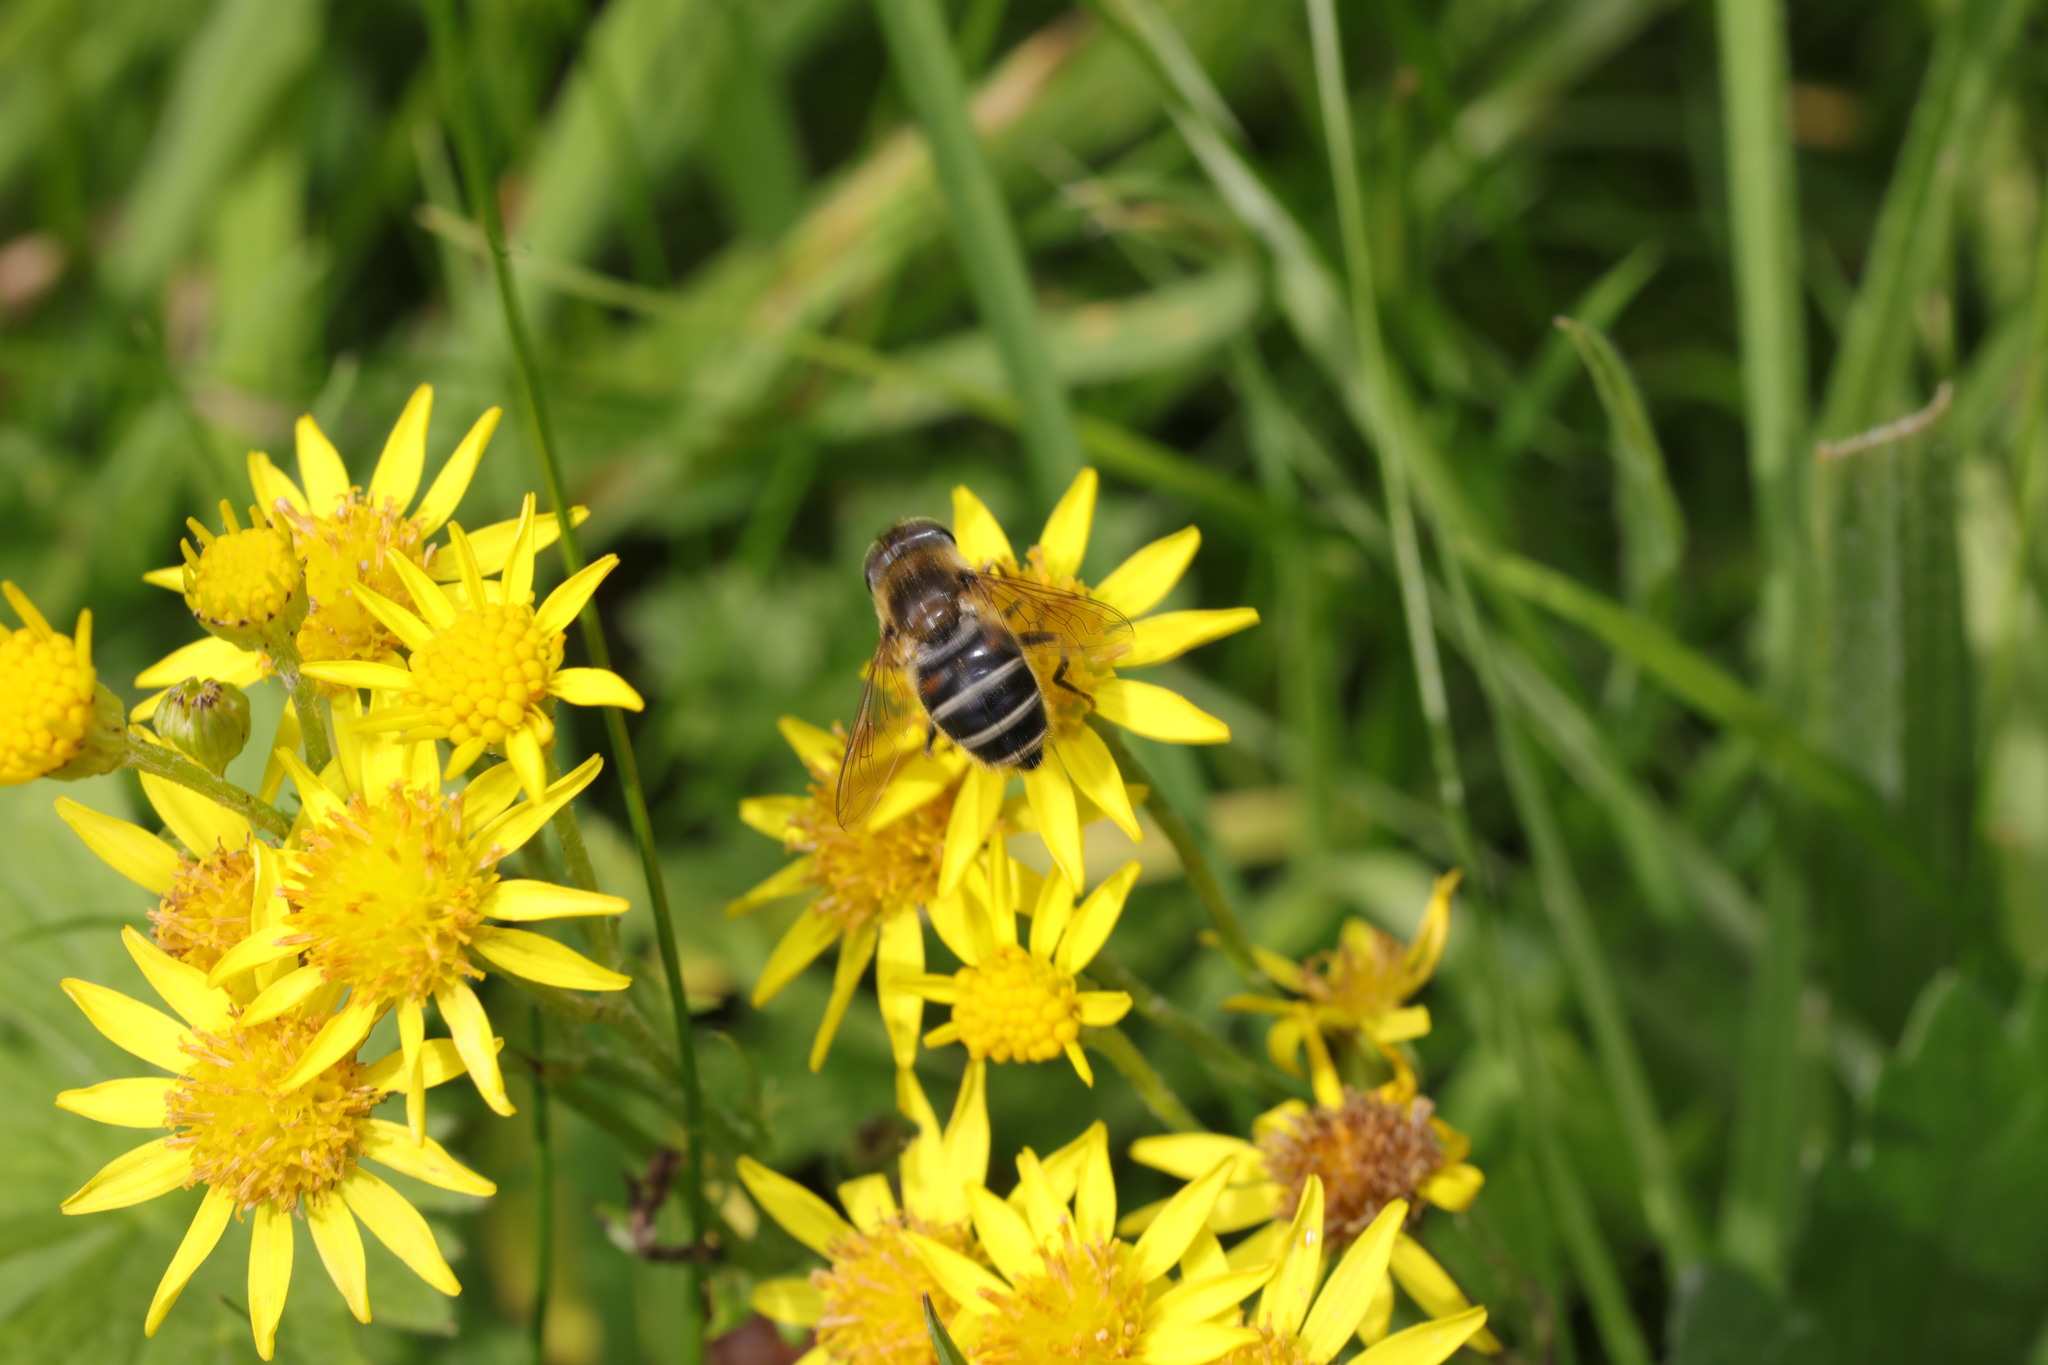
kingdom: Animalia
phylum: Arthropoda
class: Insecta
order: Diptera
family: Syrphidae
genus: Eristalis
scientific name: Eristalis nemorum
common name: Orange-spined drone fly
